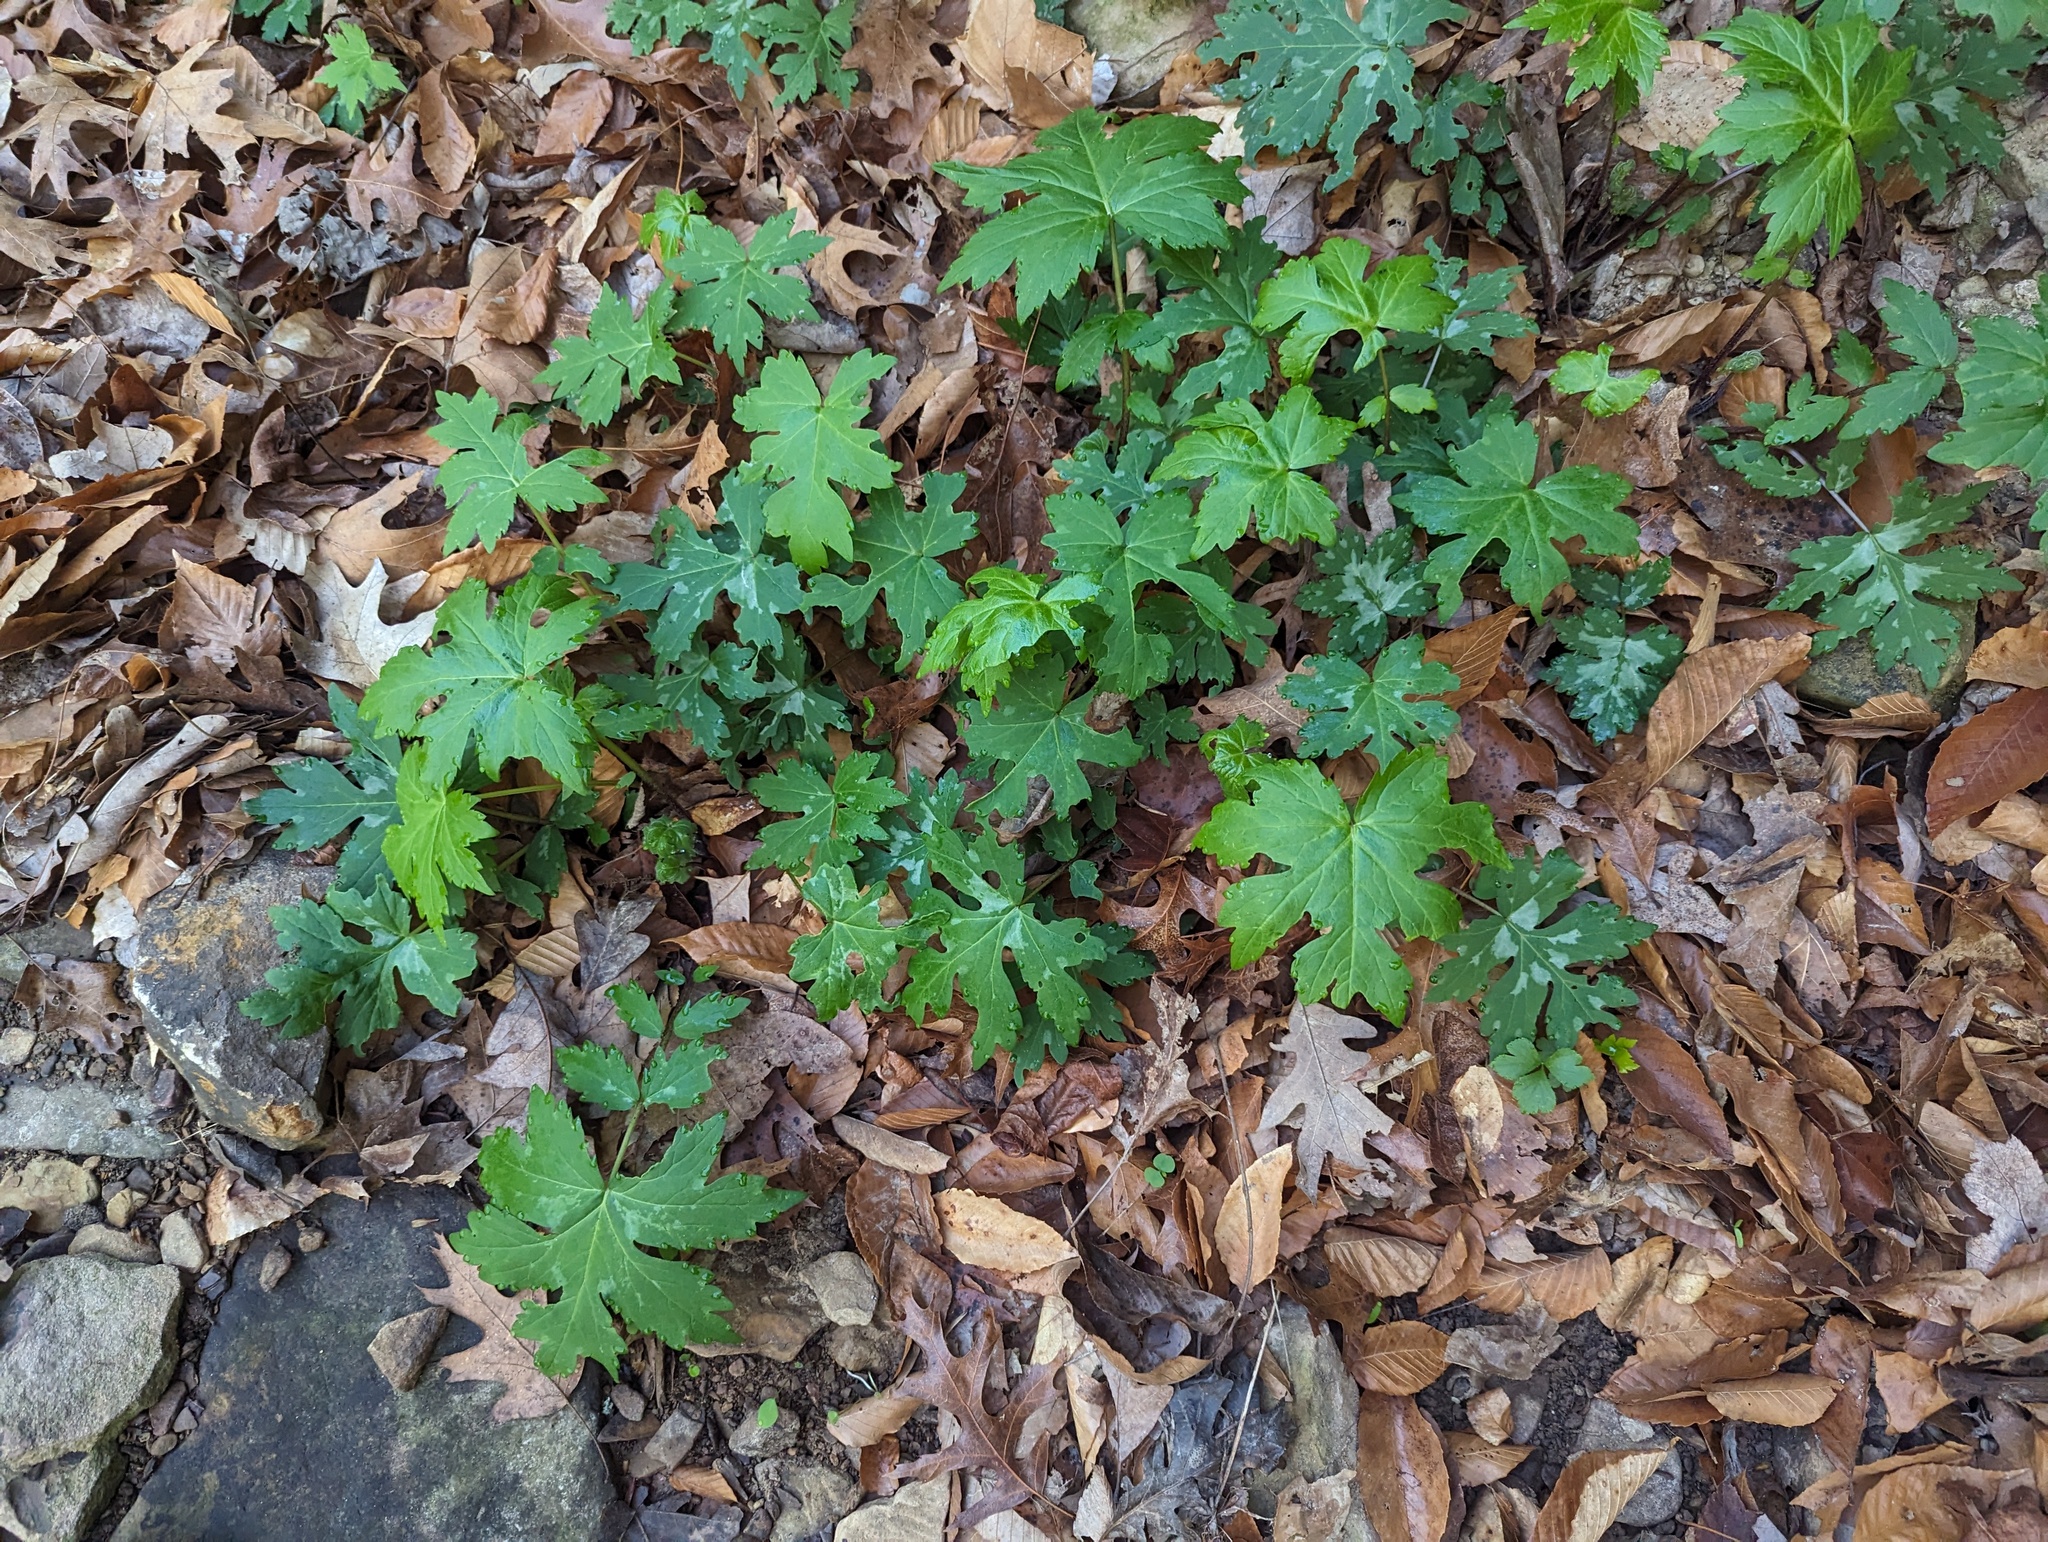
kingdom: Plantae
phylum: Tracheophyta
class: Magnoliopsida
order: Boraginales
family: Hydrophyllaceae
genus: Hydrophyllum
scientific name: Hydrophyllum canadense
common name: Canada waterleaf
